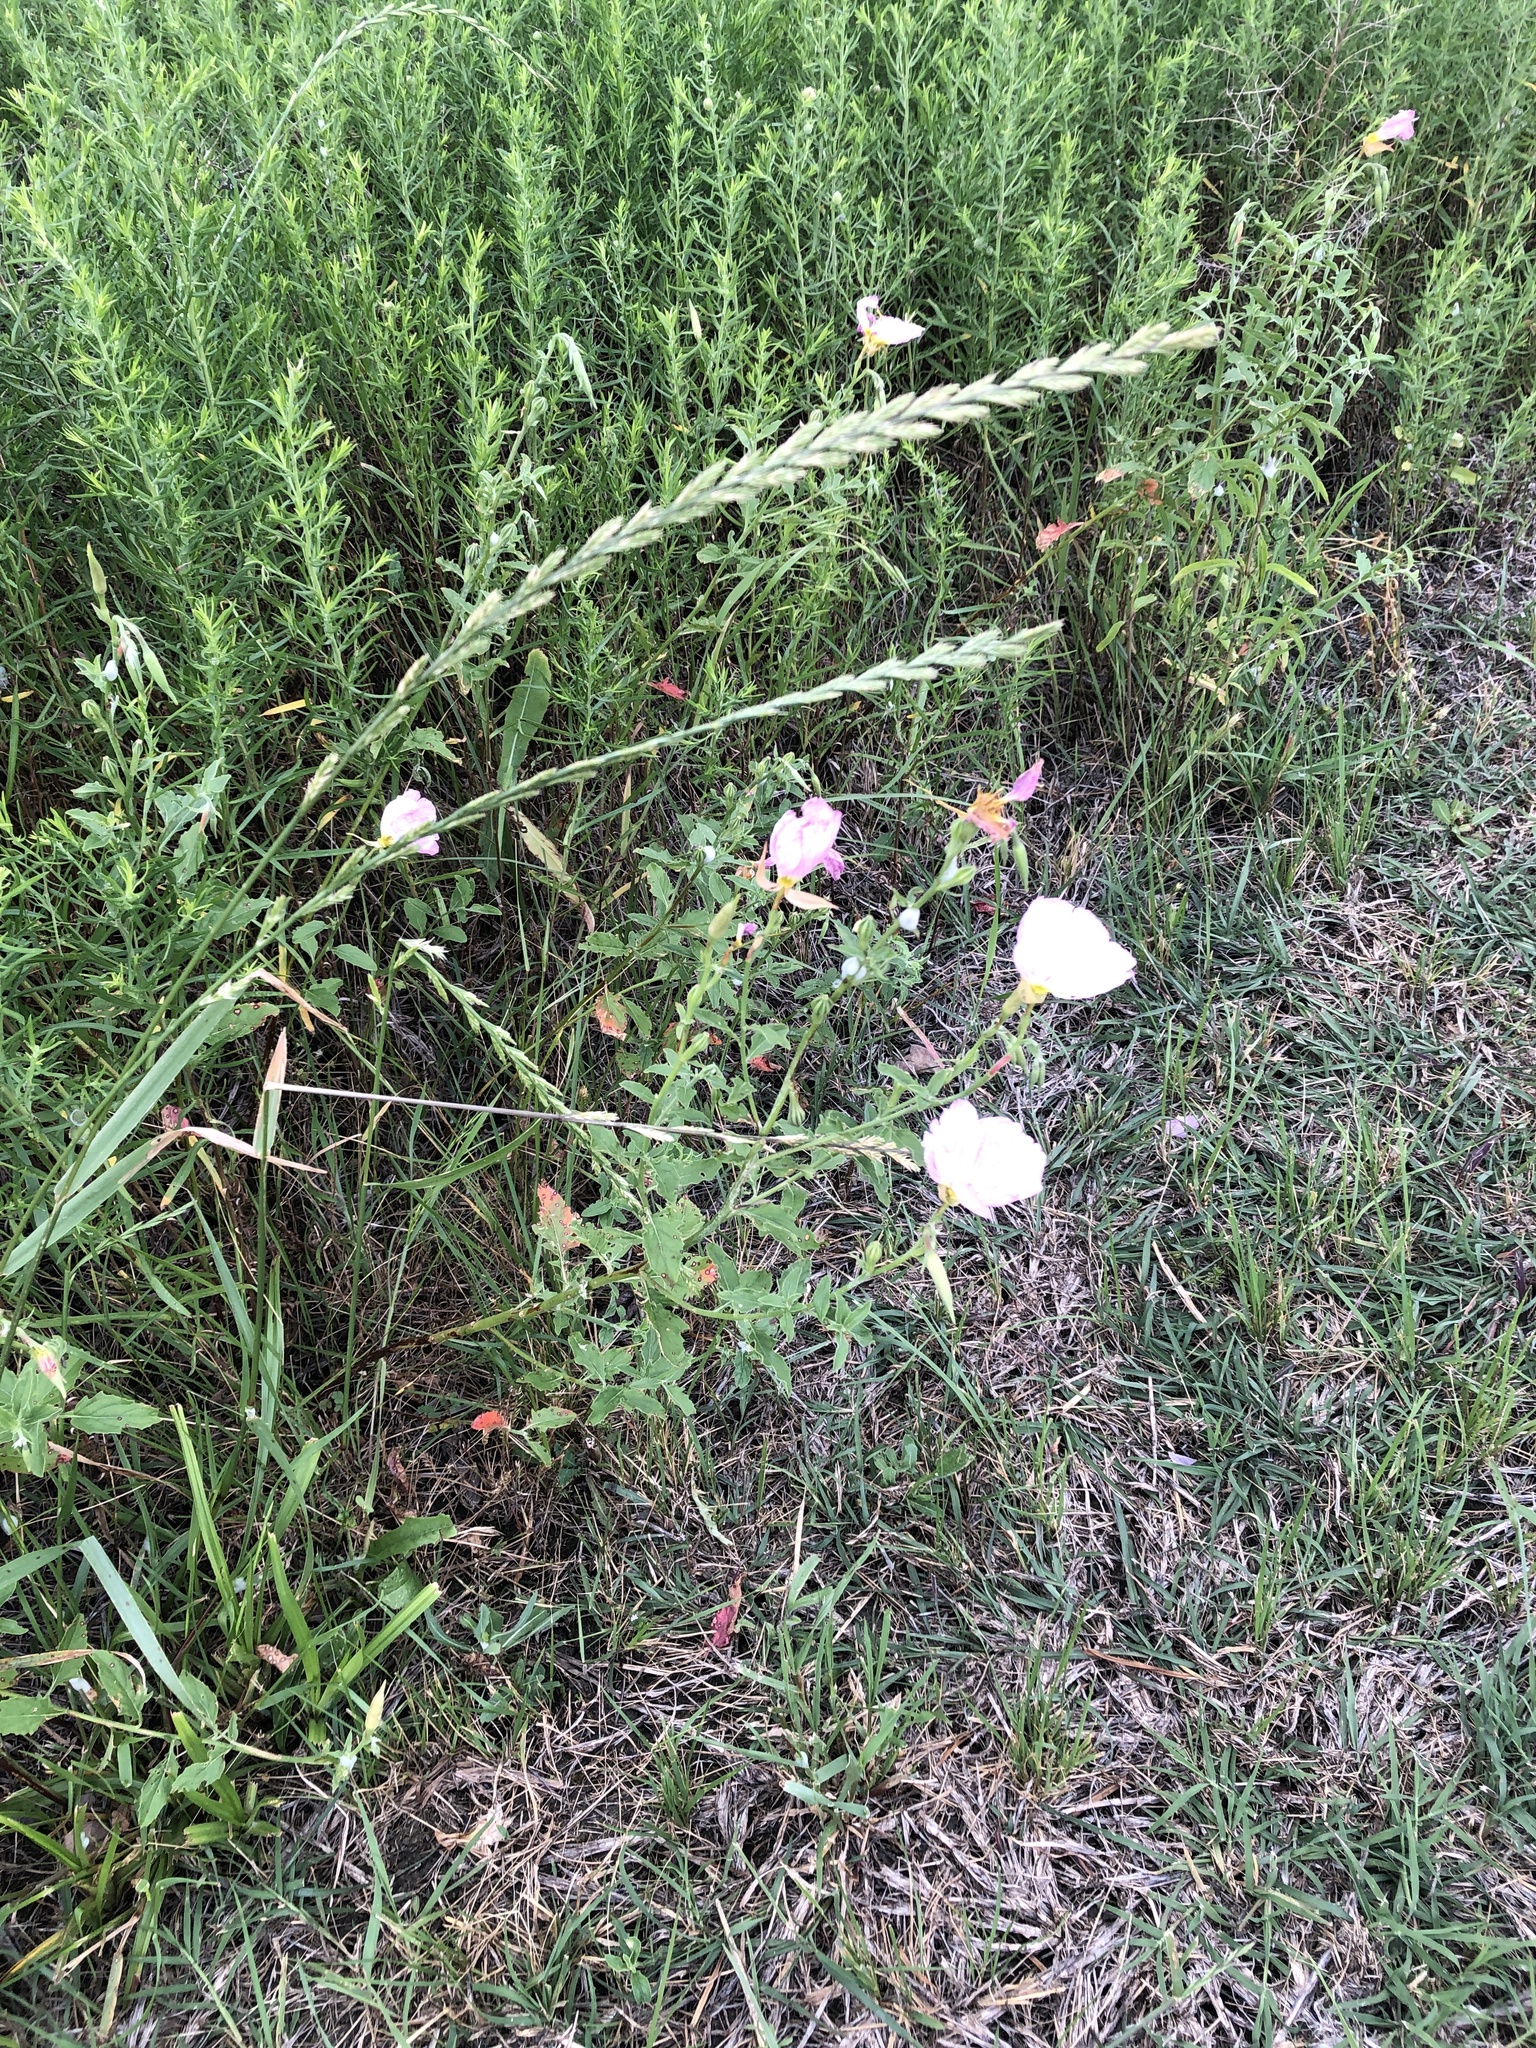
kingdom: Plantae
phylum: Tracheophyta
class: Magnoliopsida
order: Myrtales
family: Onagraceae
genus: Oenothera
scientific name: Oenothera speciosa
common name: White evening-primrose
